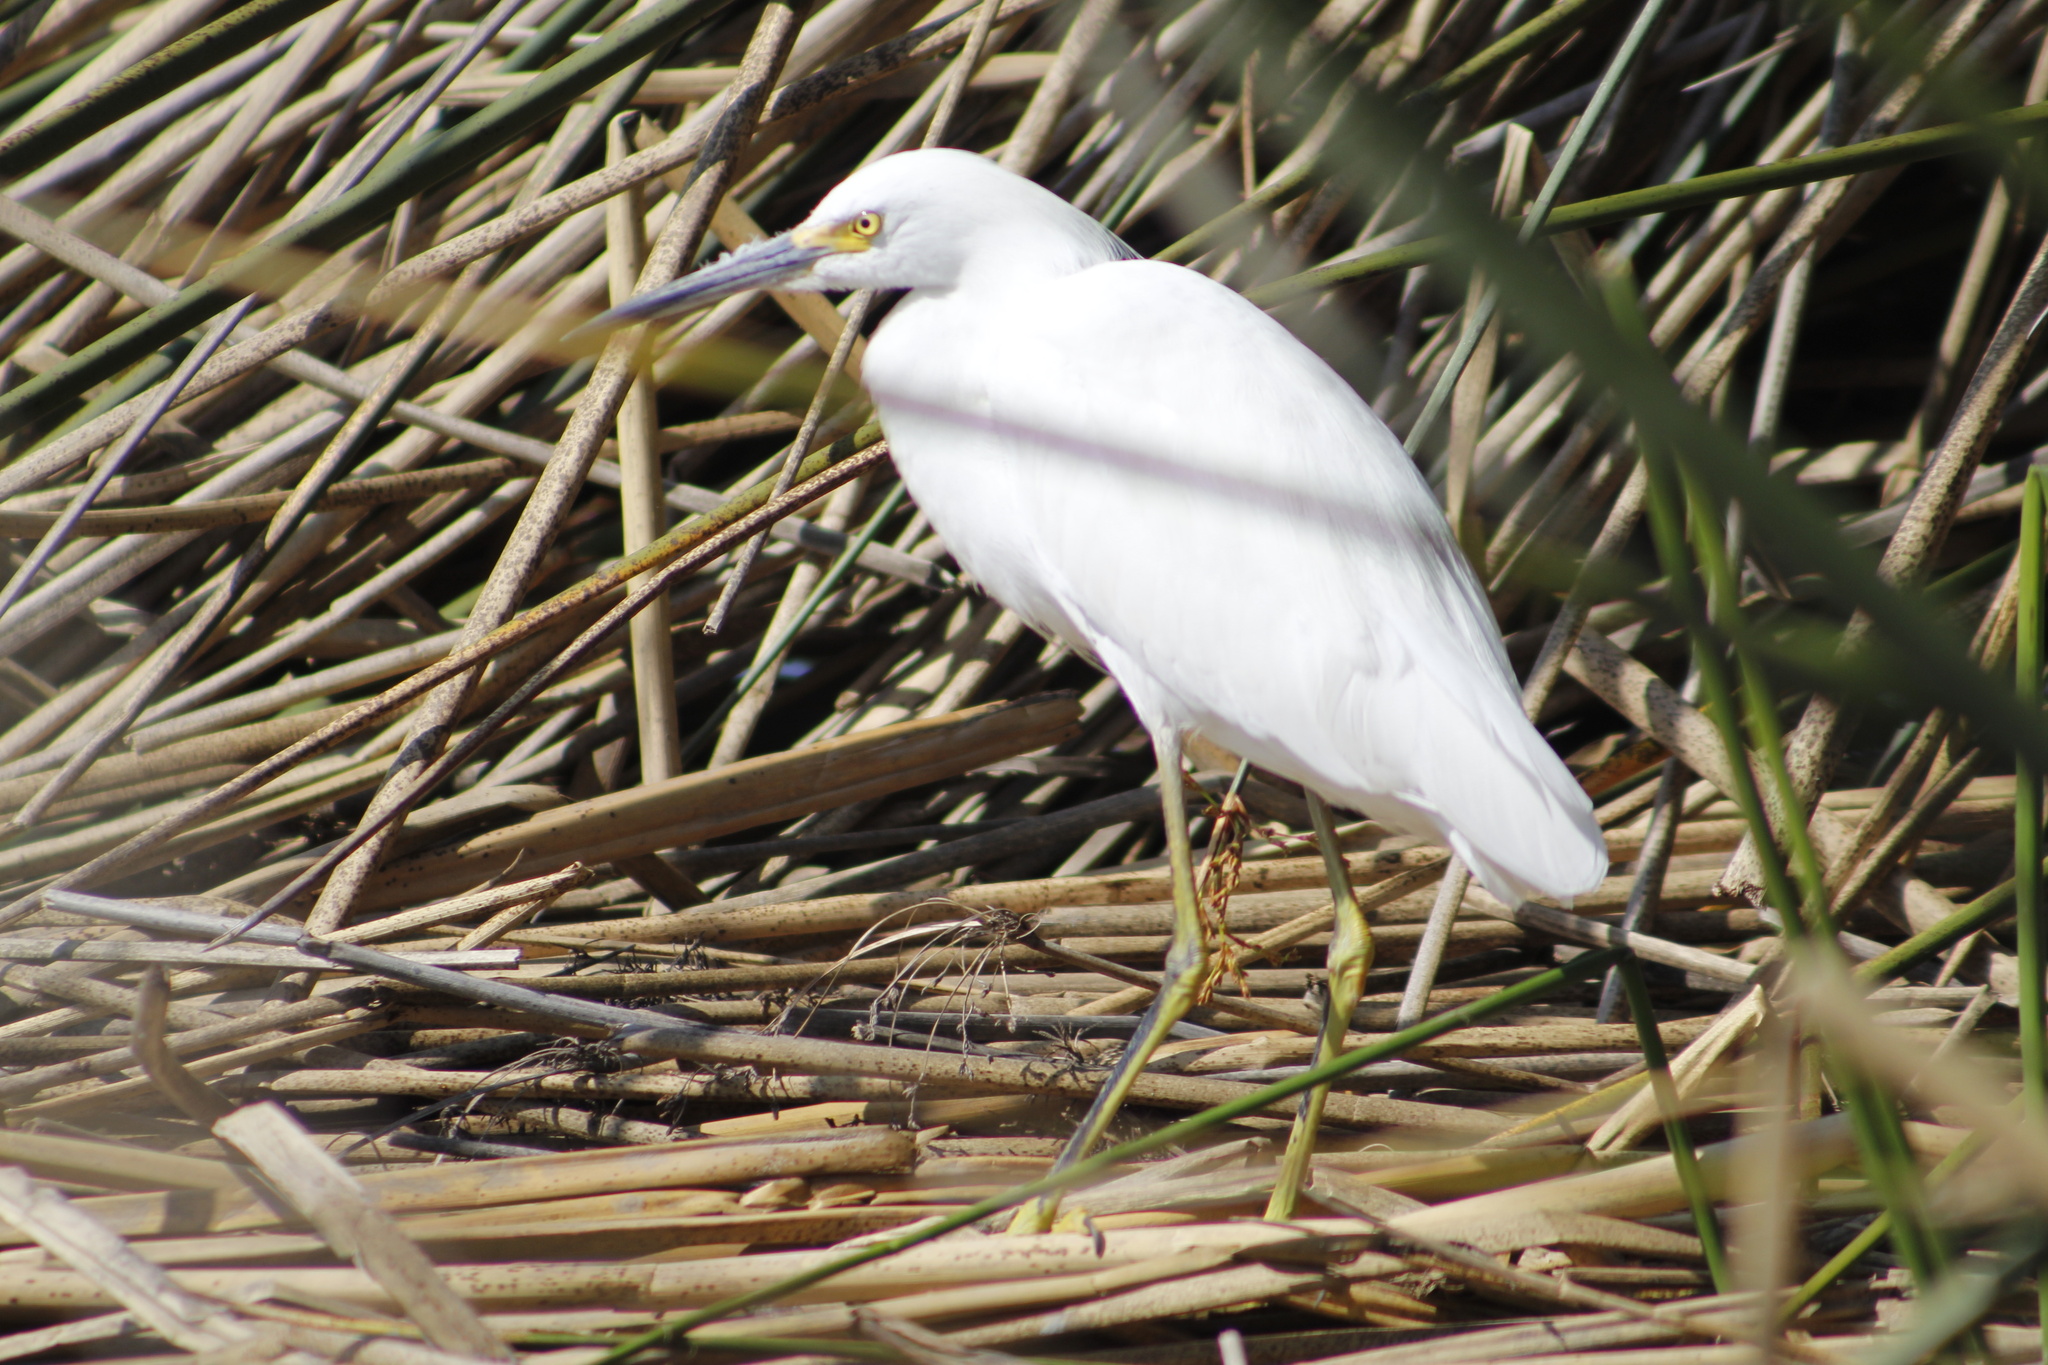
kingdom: Animalia
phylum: Chordata
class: Aves
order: Pelecaniformes
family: Ardeidae
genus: Egretta
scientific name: Egretta thula
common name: Snowy egret
